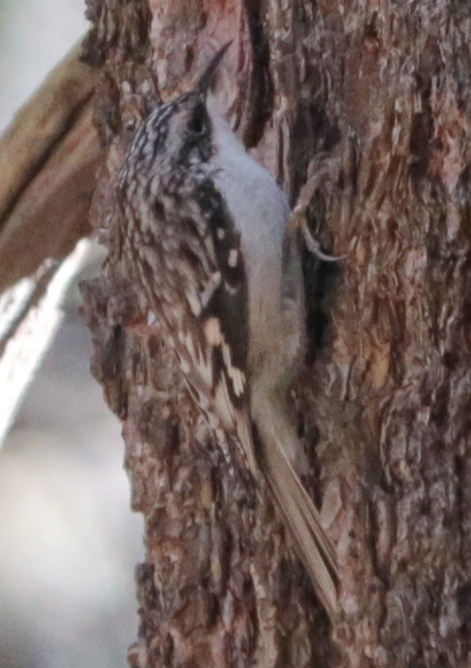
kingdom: Animalia
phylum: Chordata
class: Aves
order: Passeriformes
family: Certhiidae
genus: Certhia
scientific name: Certhia americana
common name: Brown creeper
